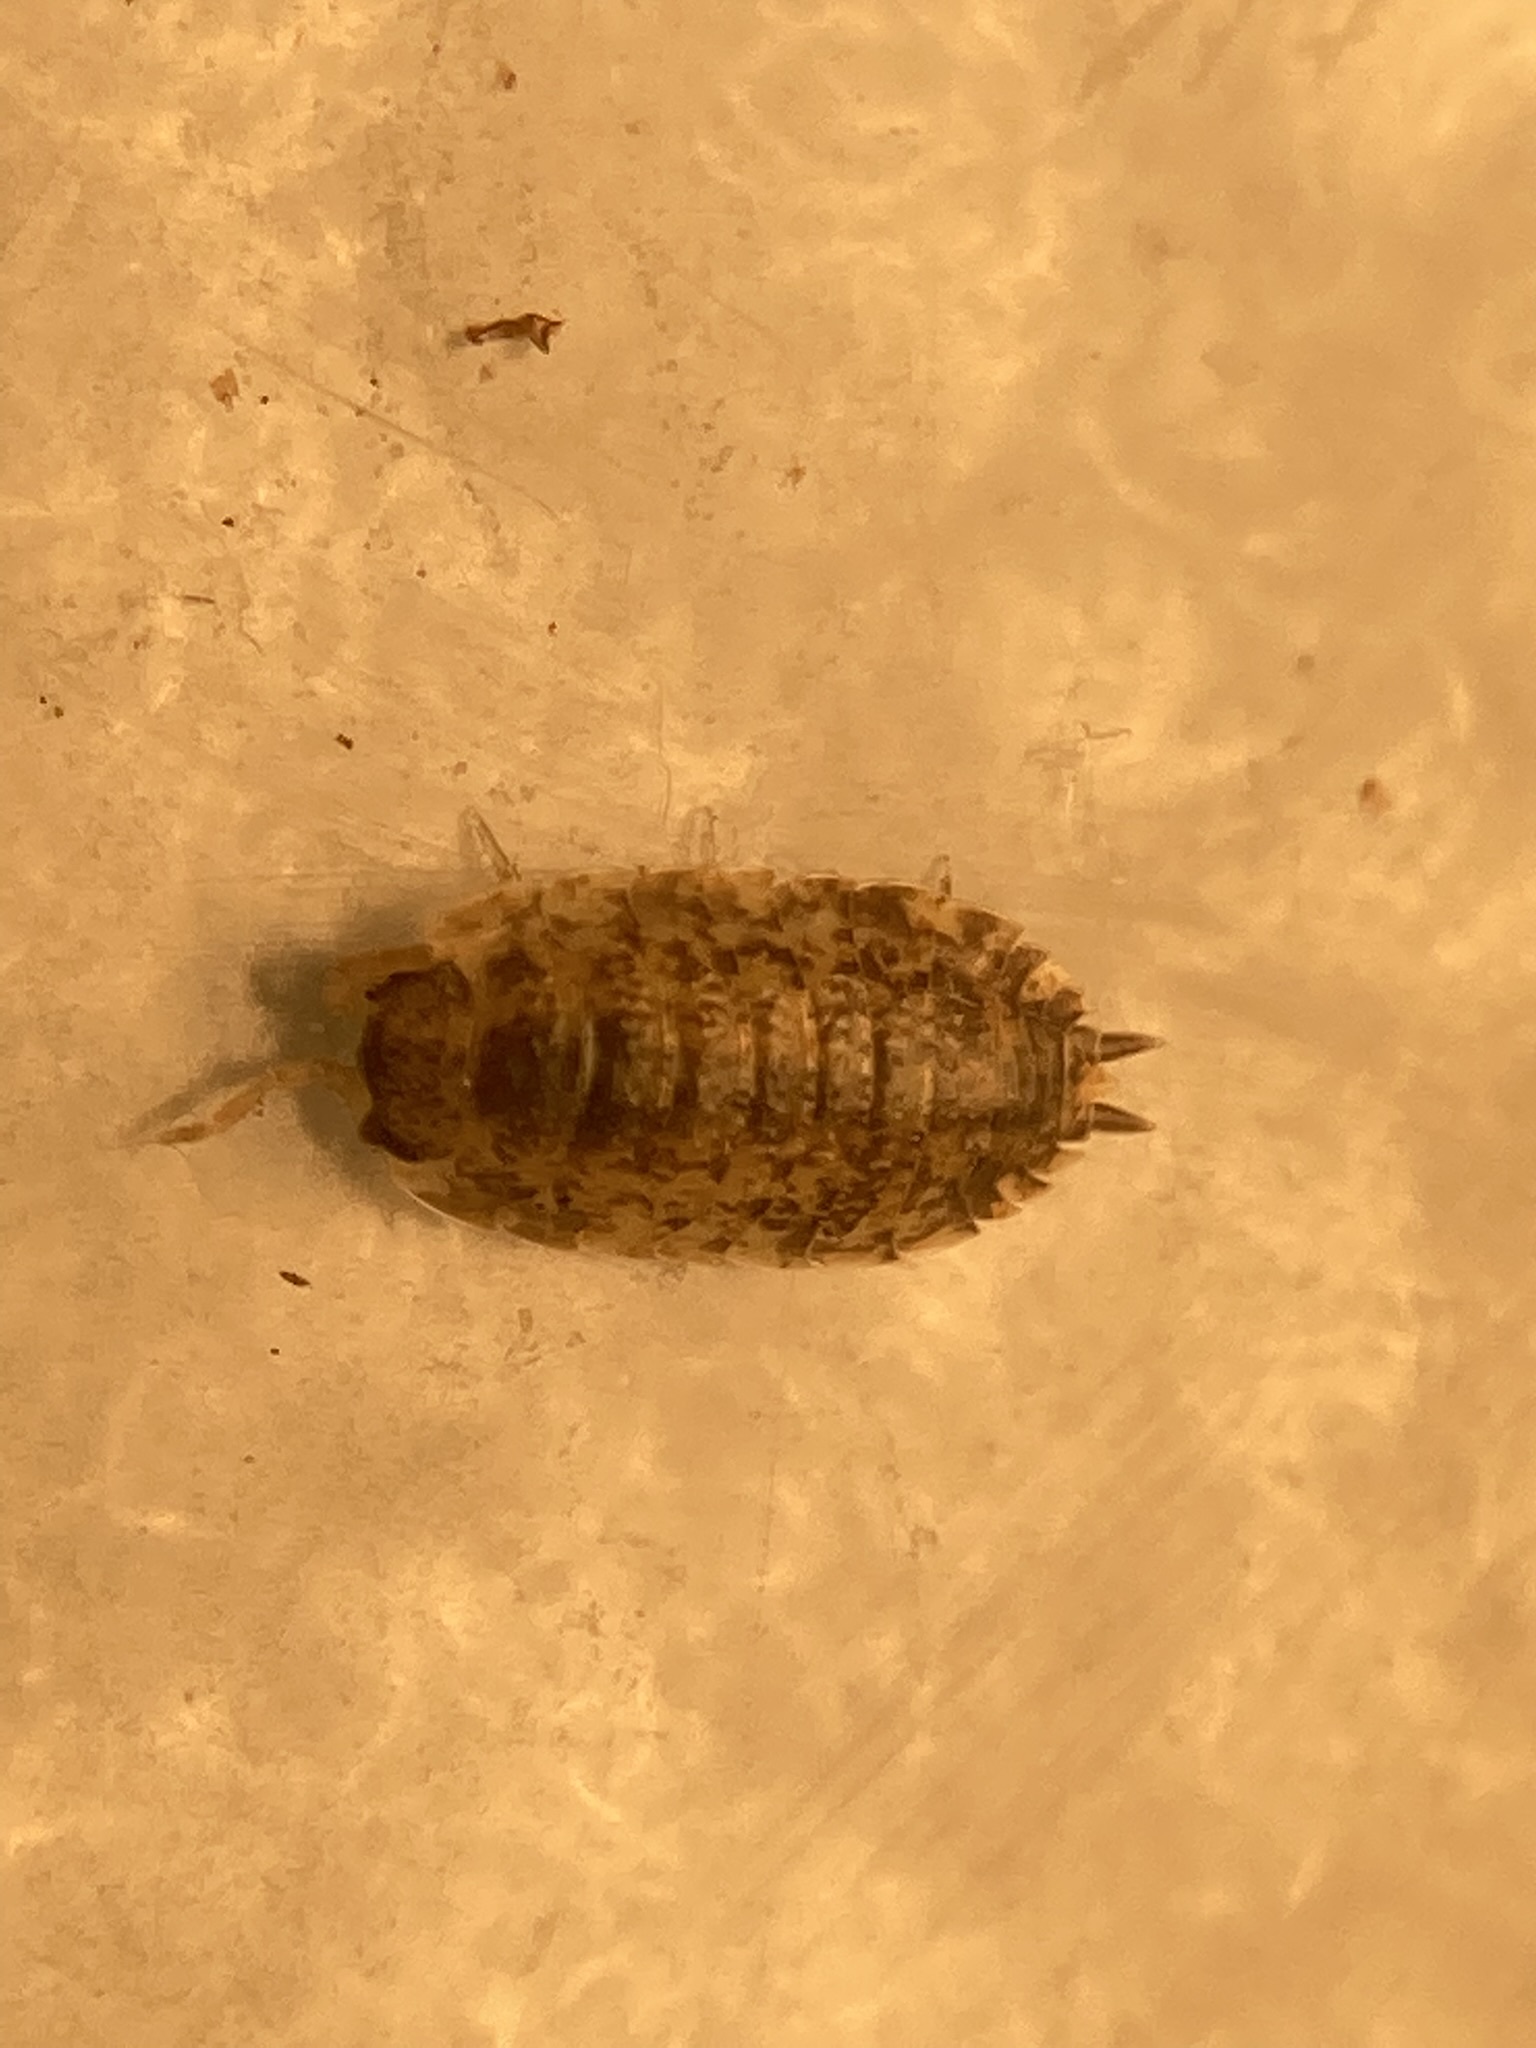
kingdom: Animalia
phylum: Arthropoda
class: Malacostraca
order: Isopoda
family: Porcellionidae
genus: Porcellio
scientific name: Porcellio scaber
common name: Common rough woodlouse
